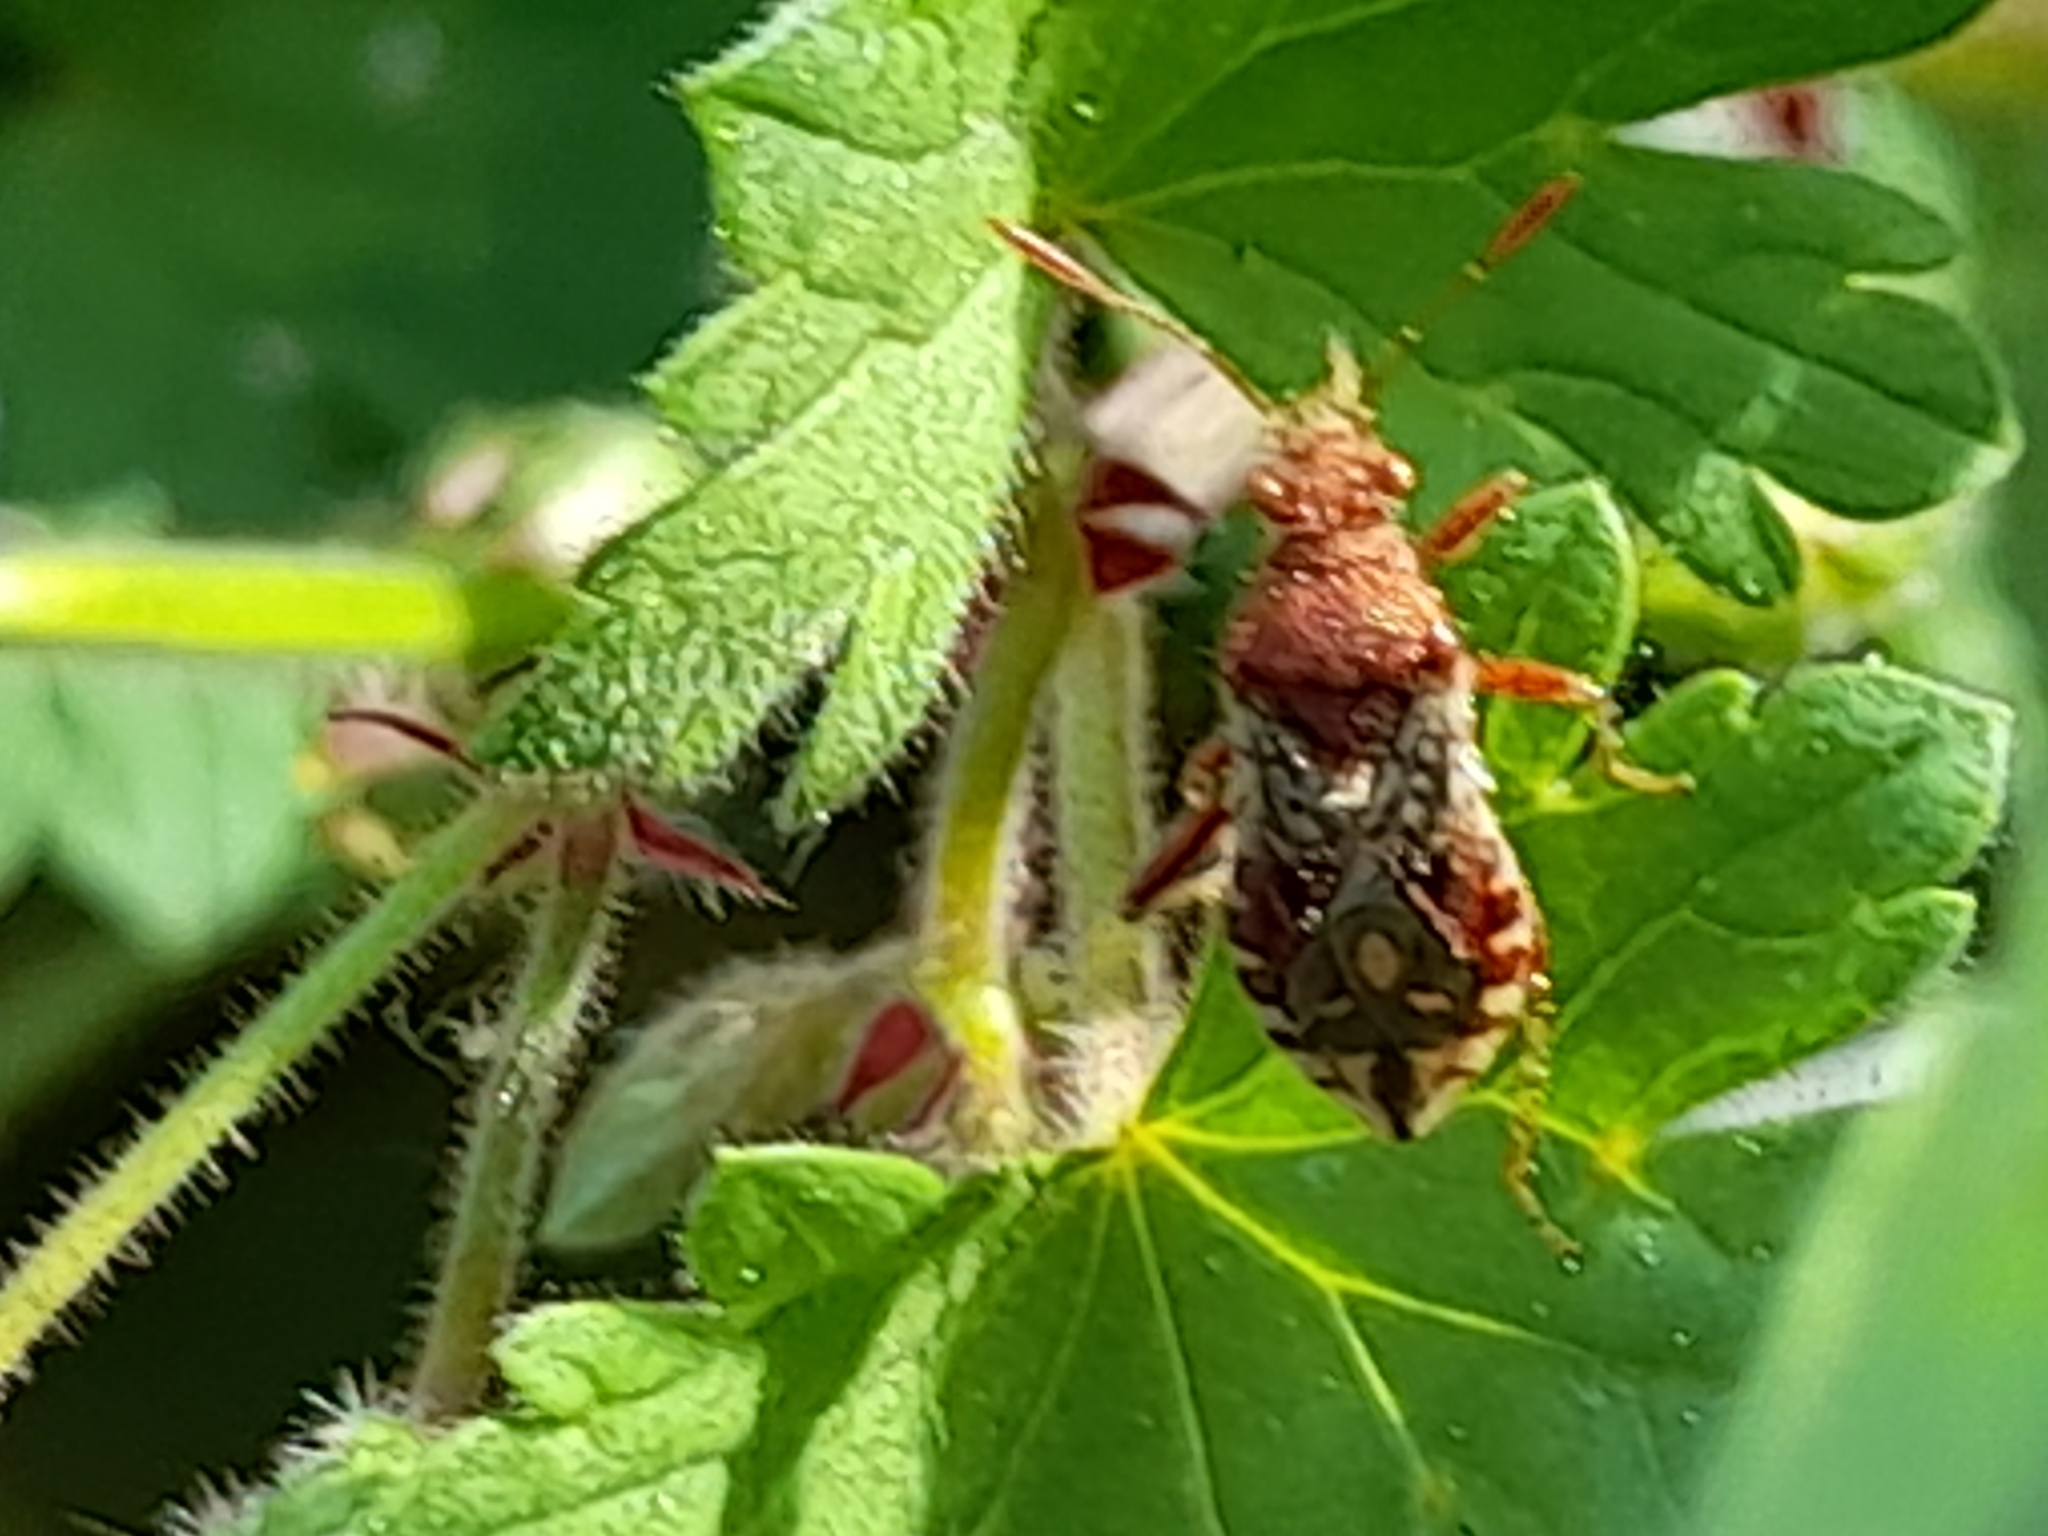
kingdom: Animalia
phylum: Arthropoda
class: Insecta
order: Hemiptera
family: Rhopalidae
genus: Rhopalus
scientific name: Rhopalus subrufus
